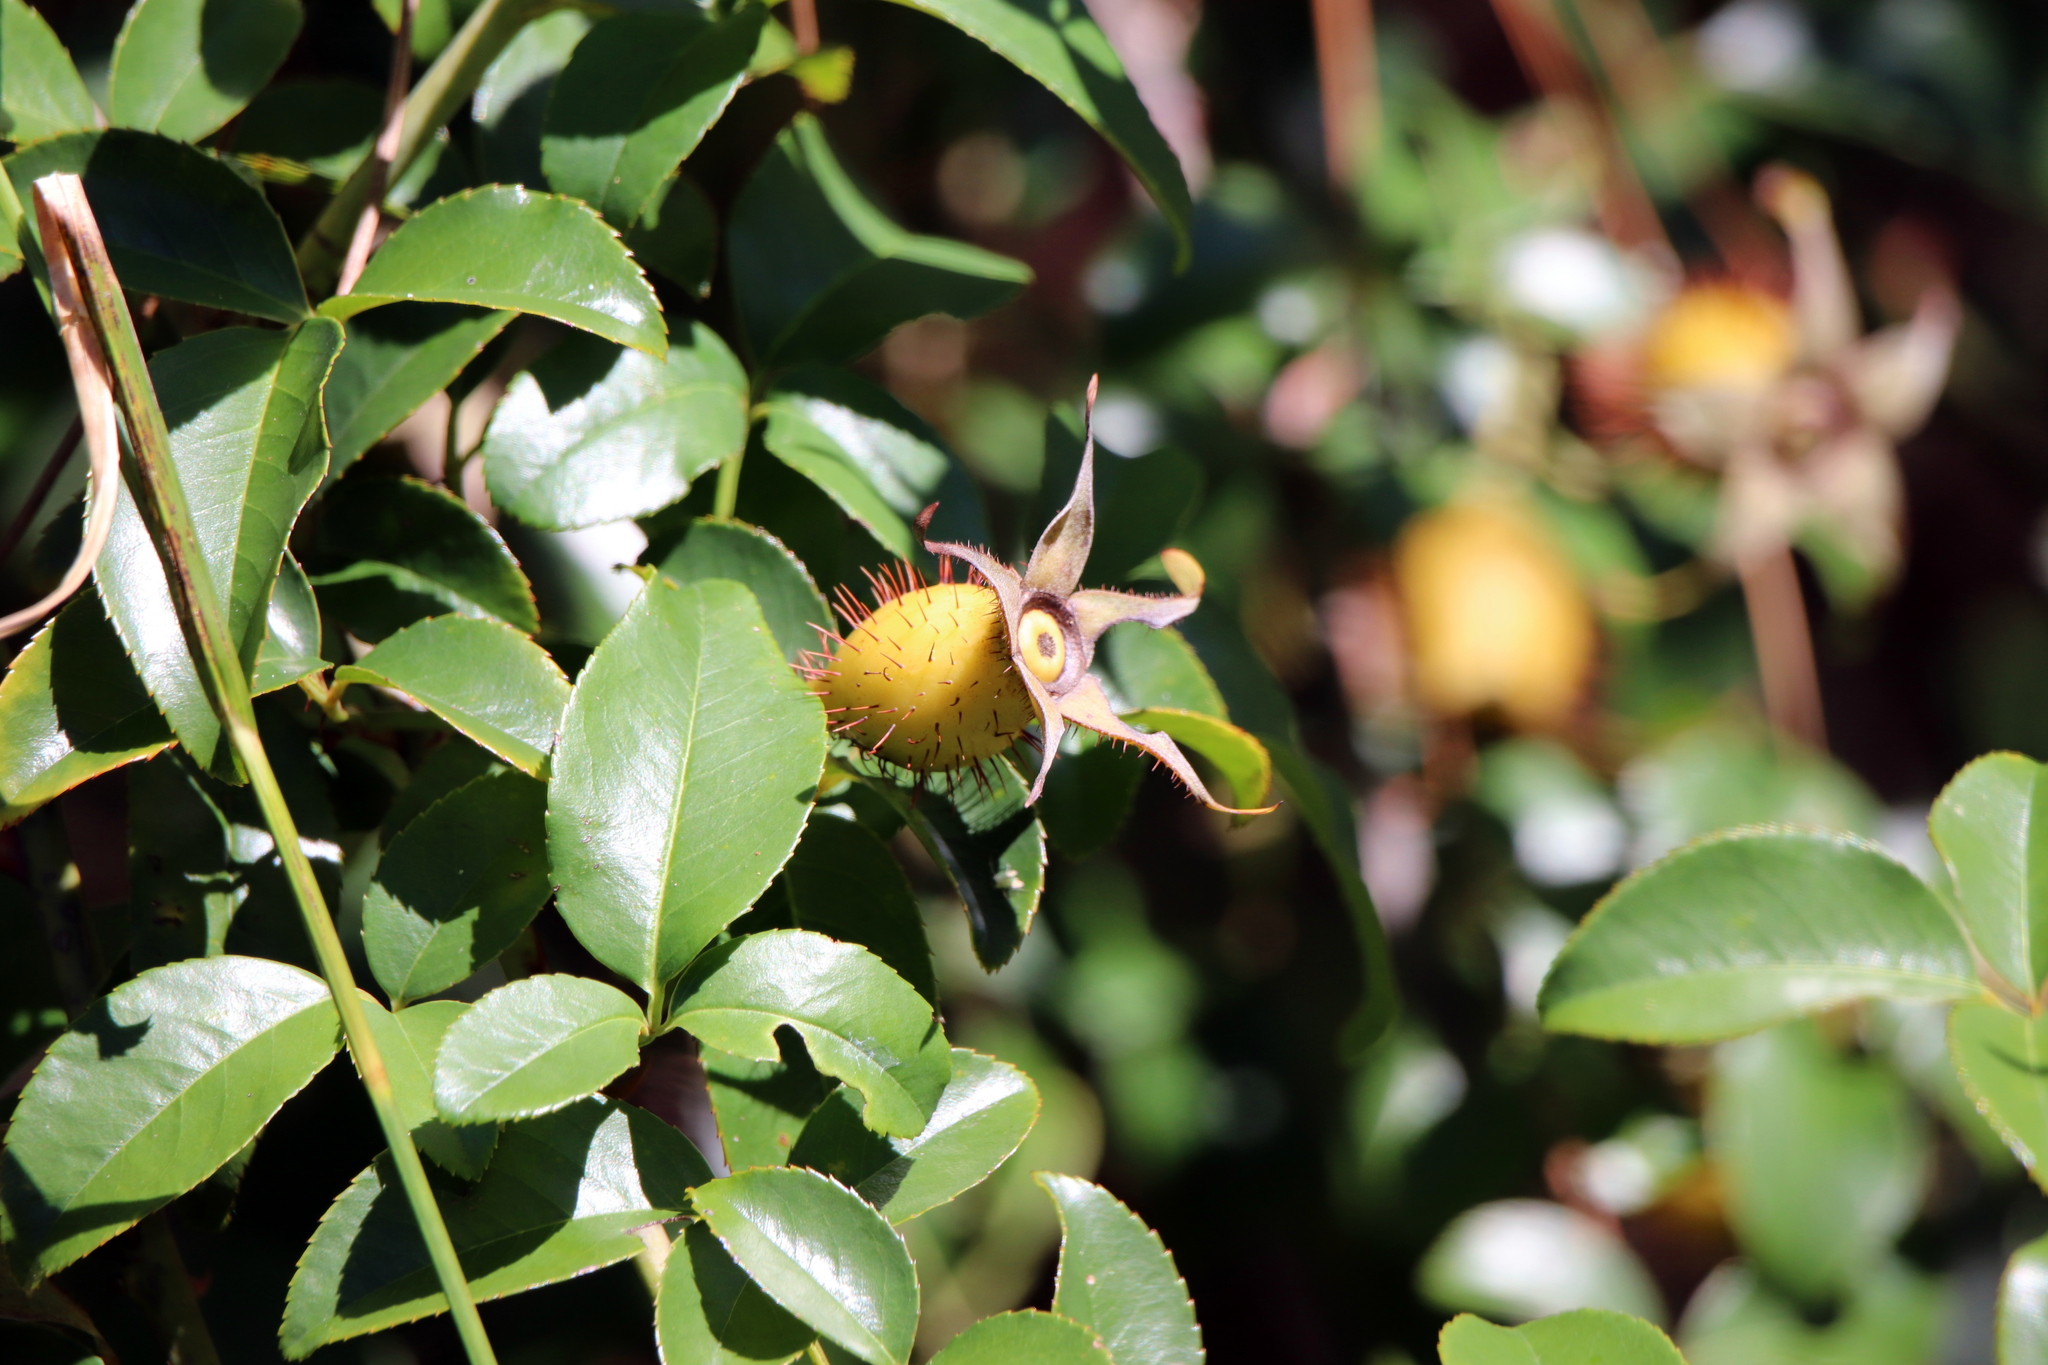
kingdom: Plantae
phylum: Tracheophyta
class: Magnoliopsida
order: Rosales
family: Rosaceae
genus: Rosa
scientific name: Rosa laevigata
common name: Cherokee rose
